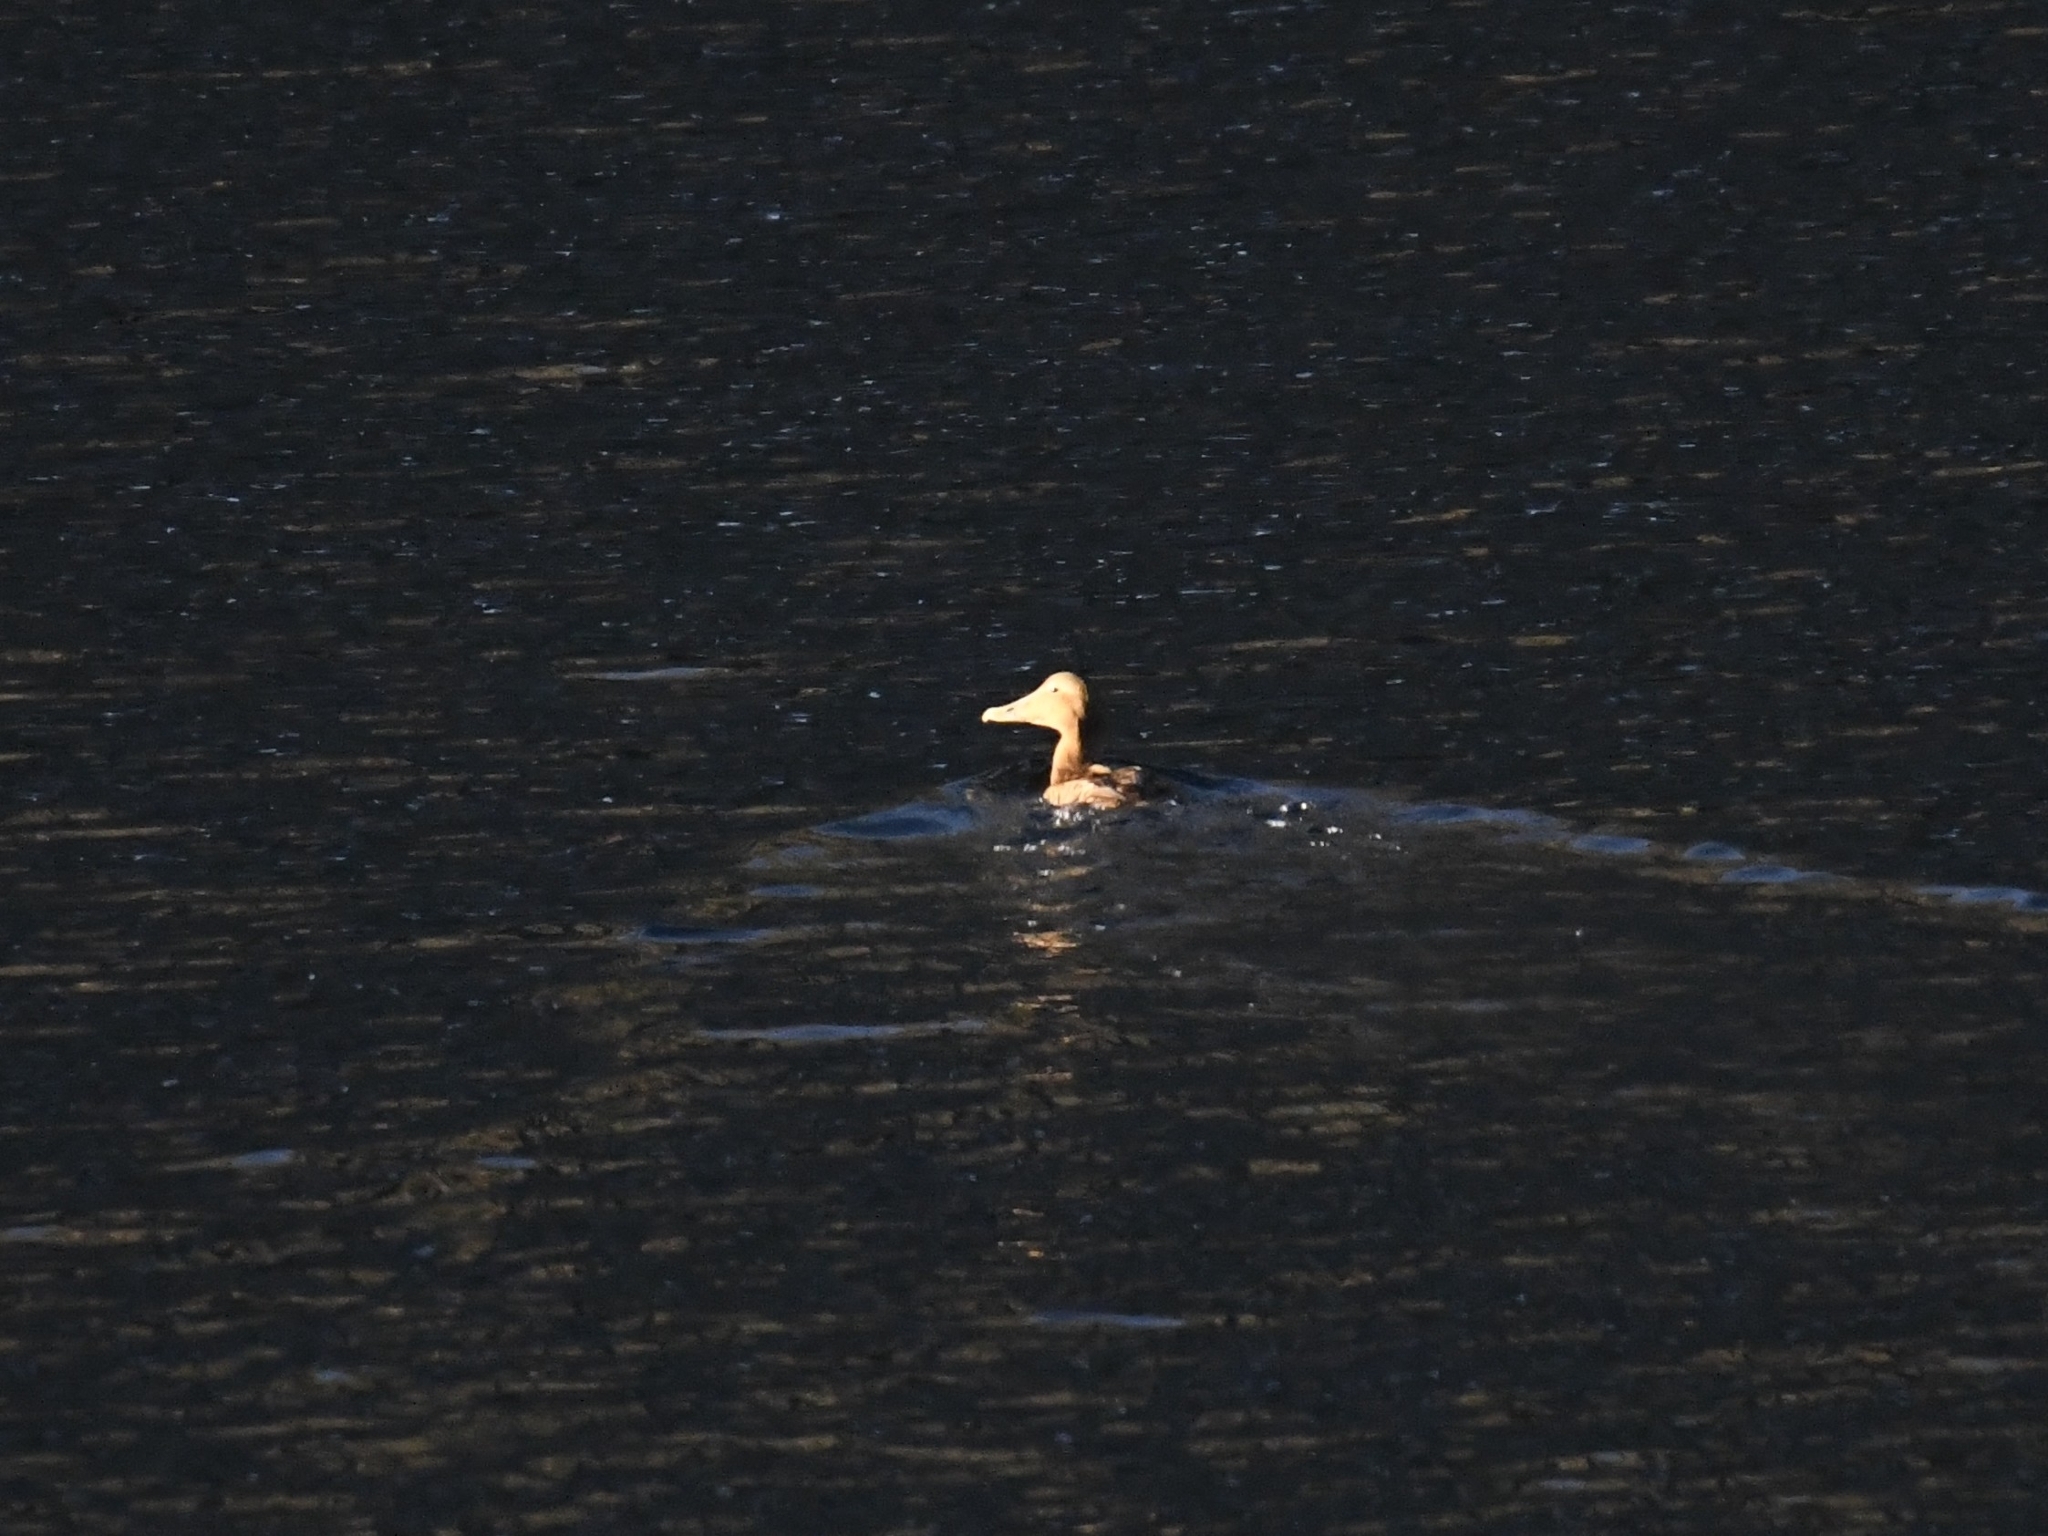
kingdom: Animalia
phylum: Chordata
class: Aves
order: Anseriformes
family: Anatidae
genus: Somateria
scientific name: Somateria mollissima
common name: Common eider
